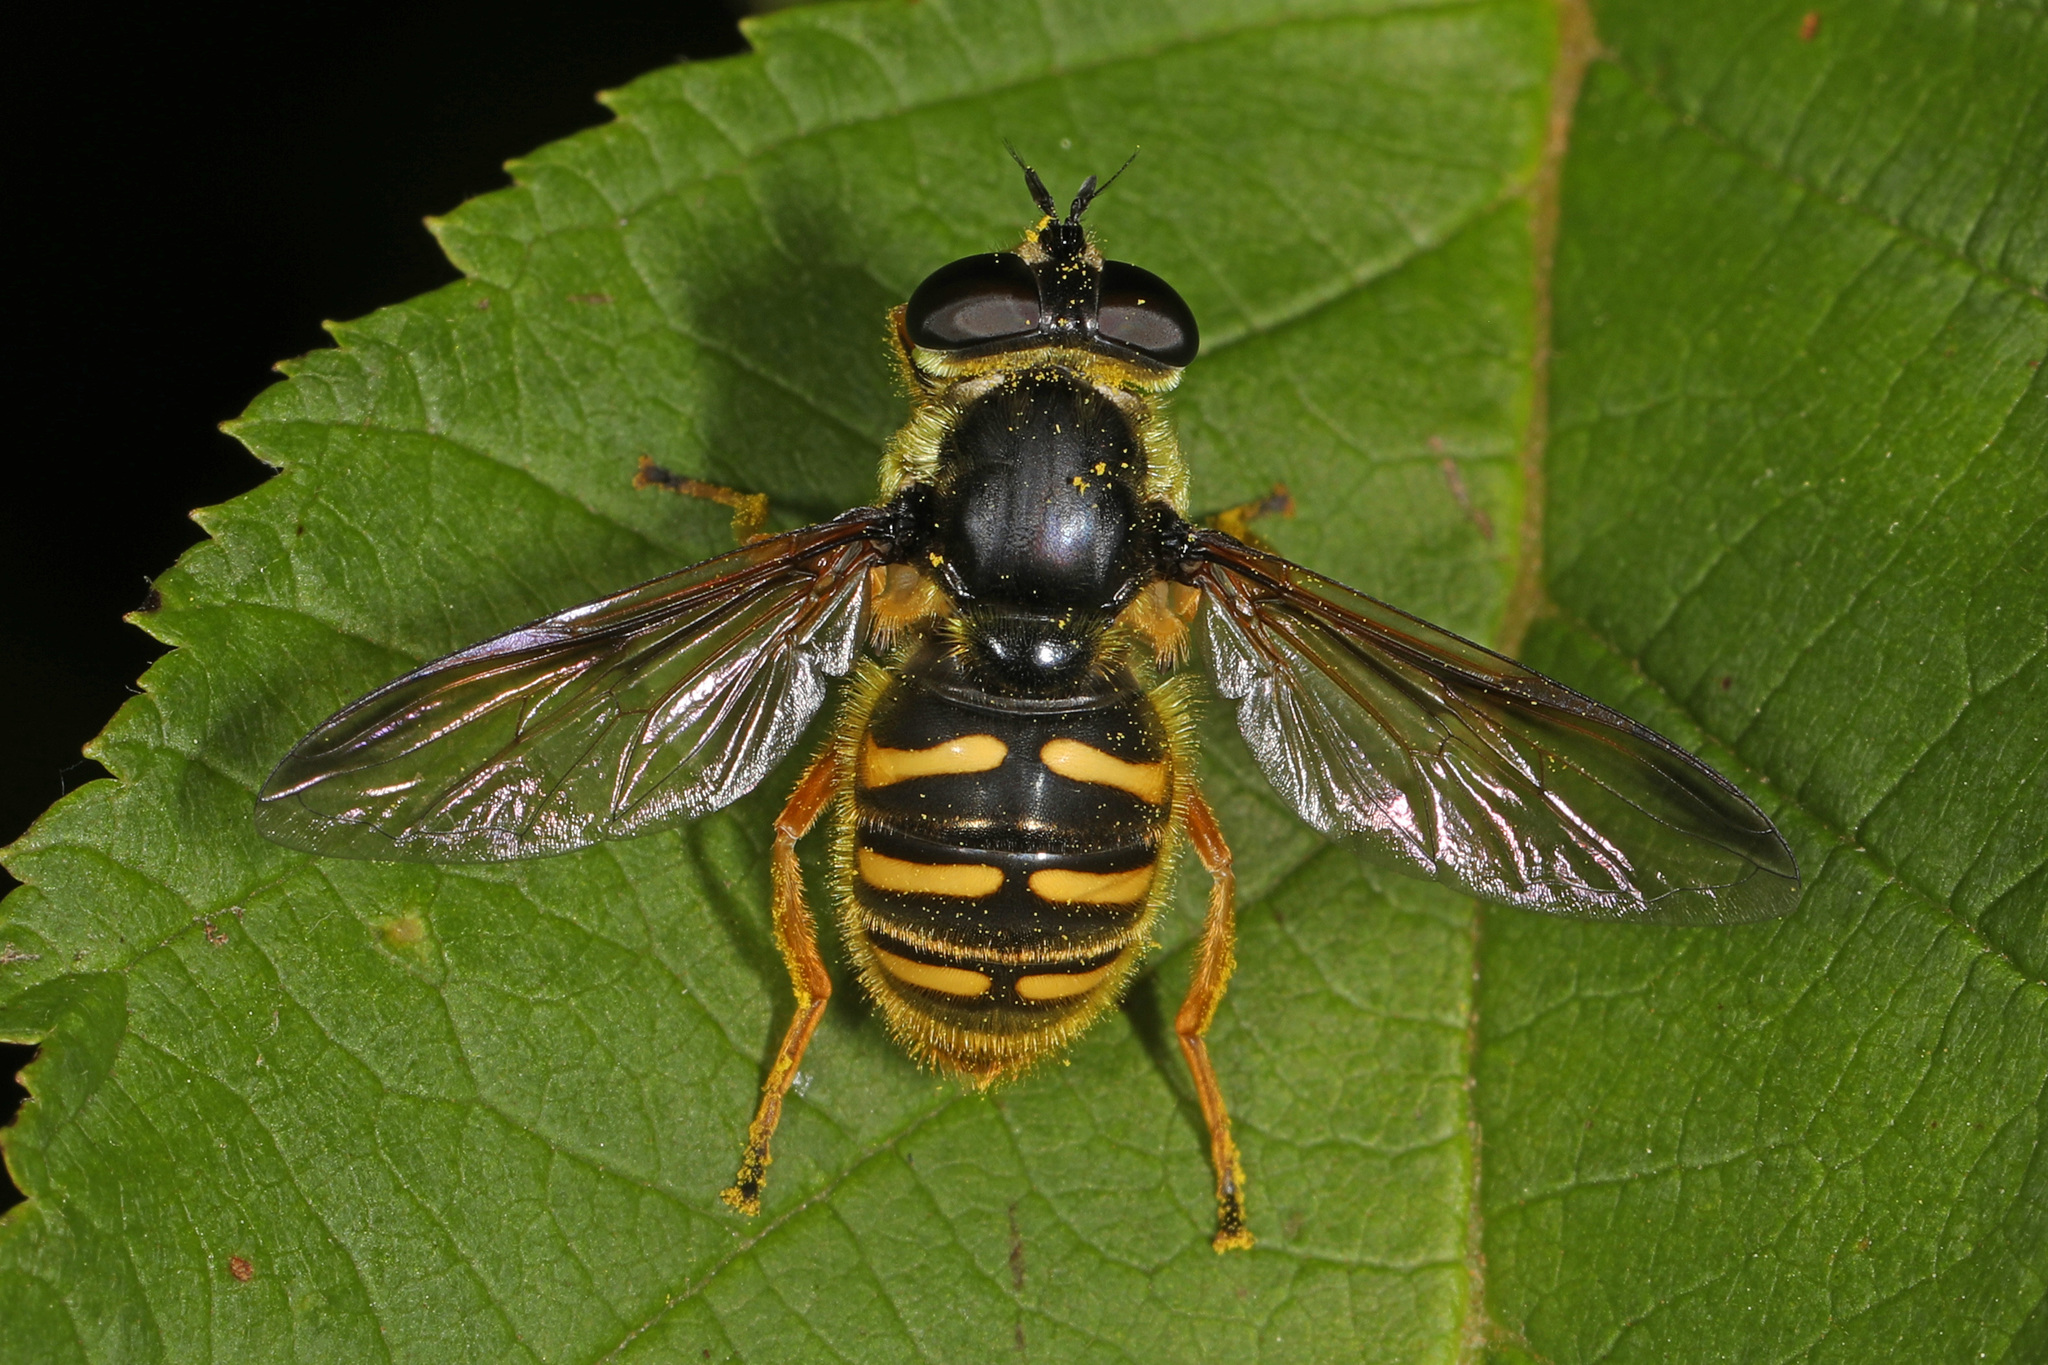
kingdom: Animalia
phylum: Arthropoda
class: Insecta
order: Diptera
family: Syrphidae
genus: Sericomyia
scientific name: Sericomyia chrysotoxoides
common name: Oblique-banded pond fly
